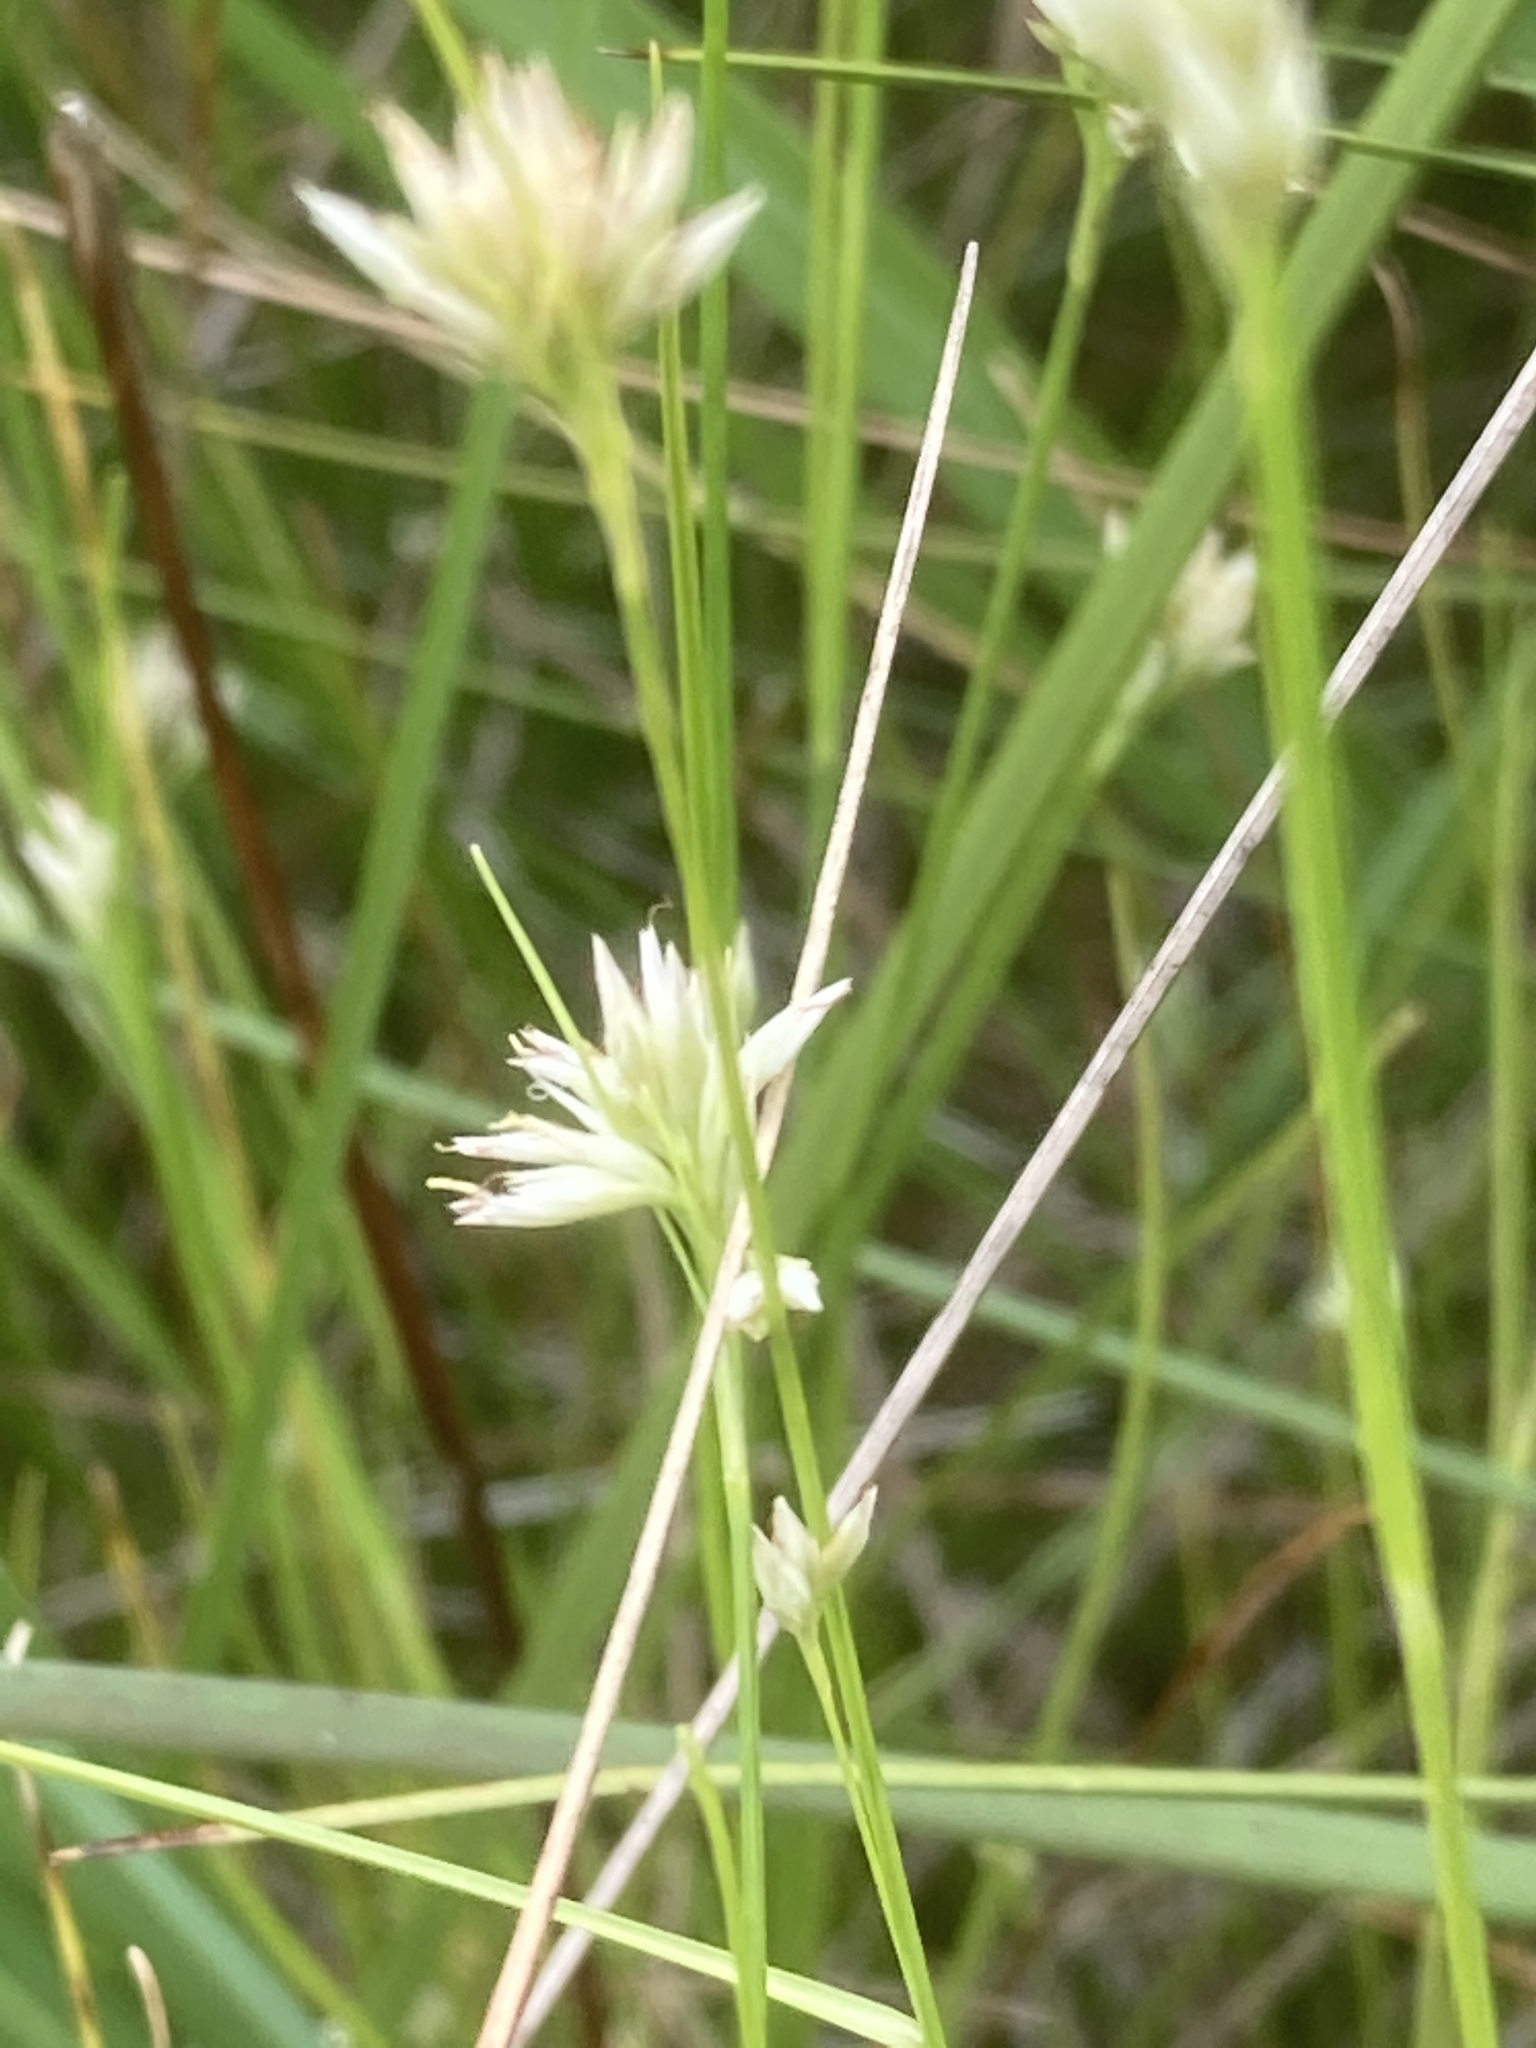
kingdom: Plantae
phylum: Tracheophyta
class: Liliopsida
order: Poales
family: Cyperaceae
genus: Rhynchospora
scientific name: Rhynchospora alba
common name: White beak-sedge
